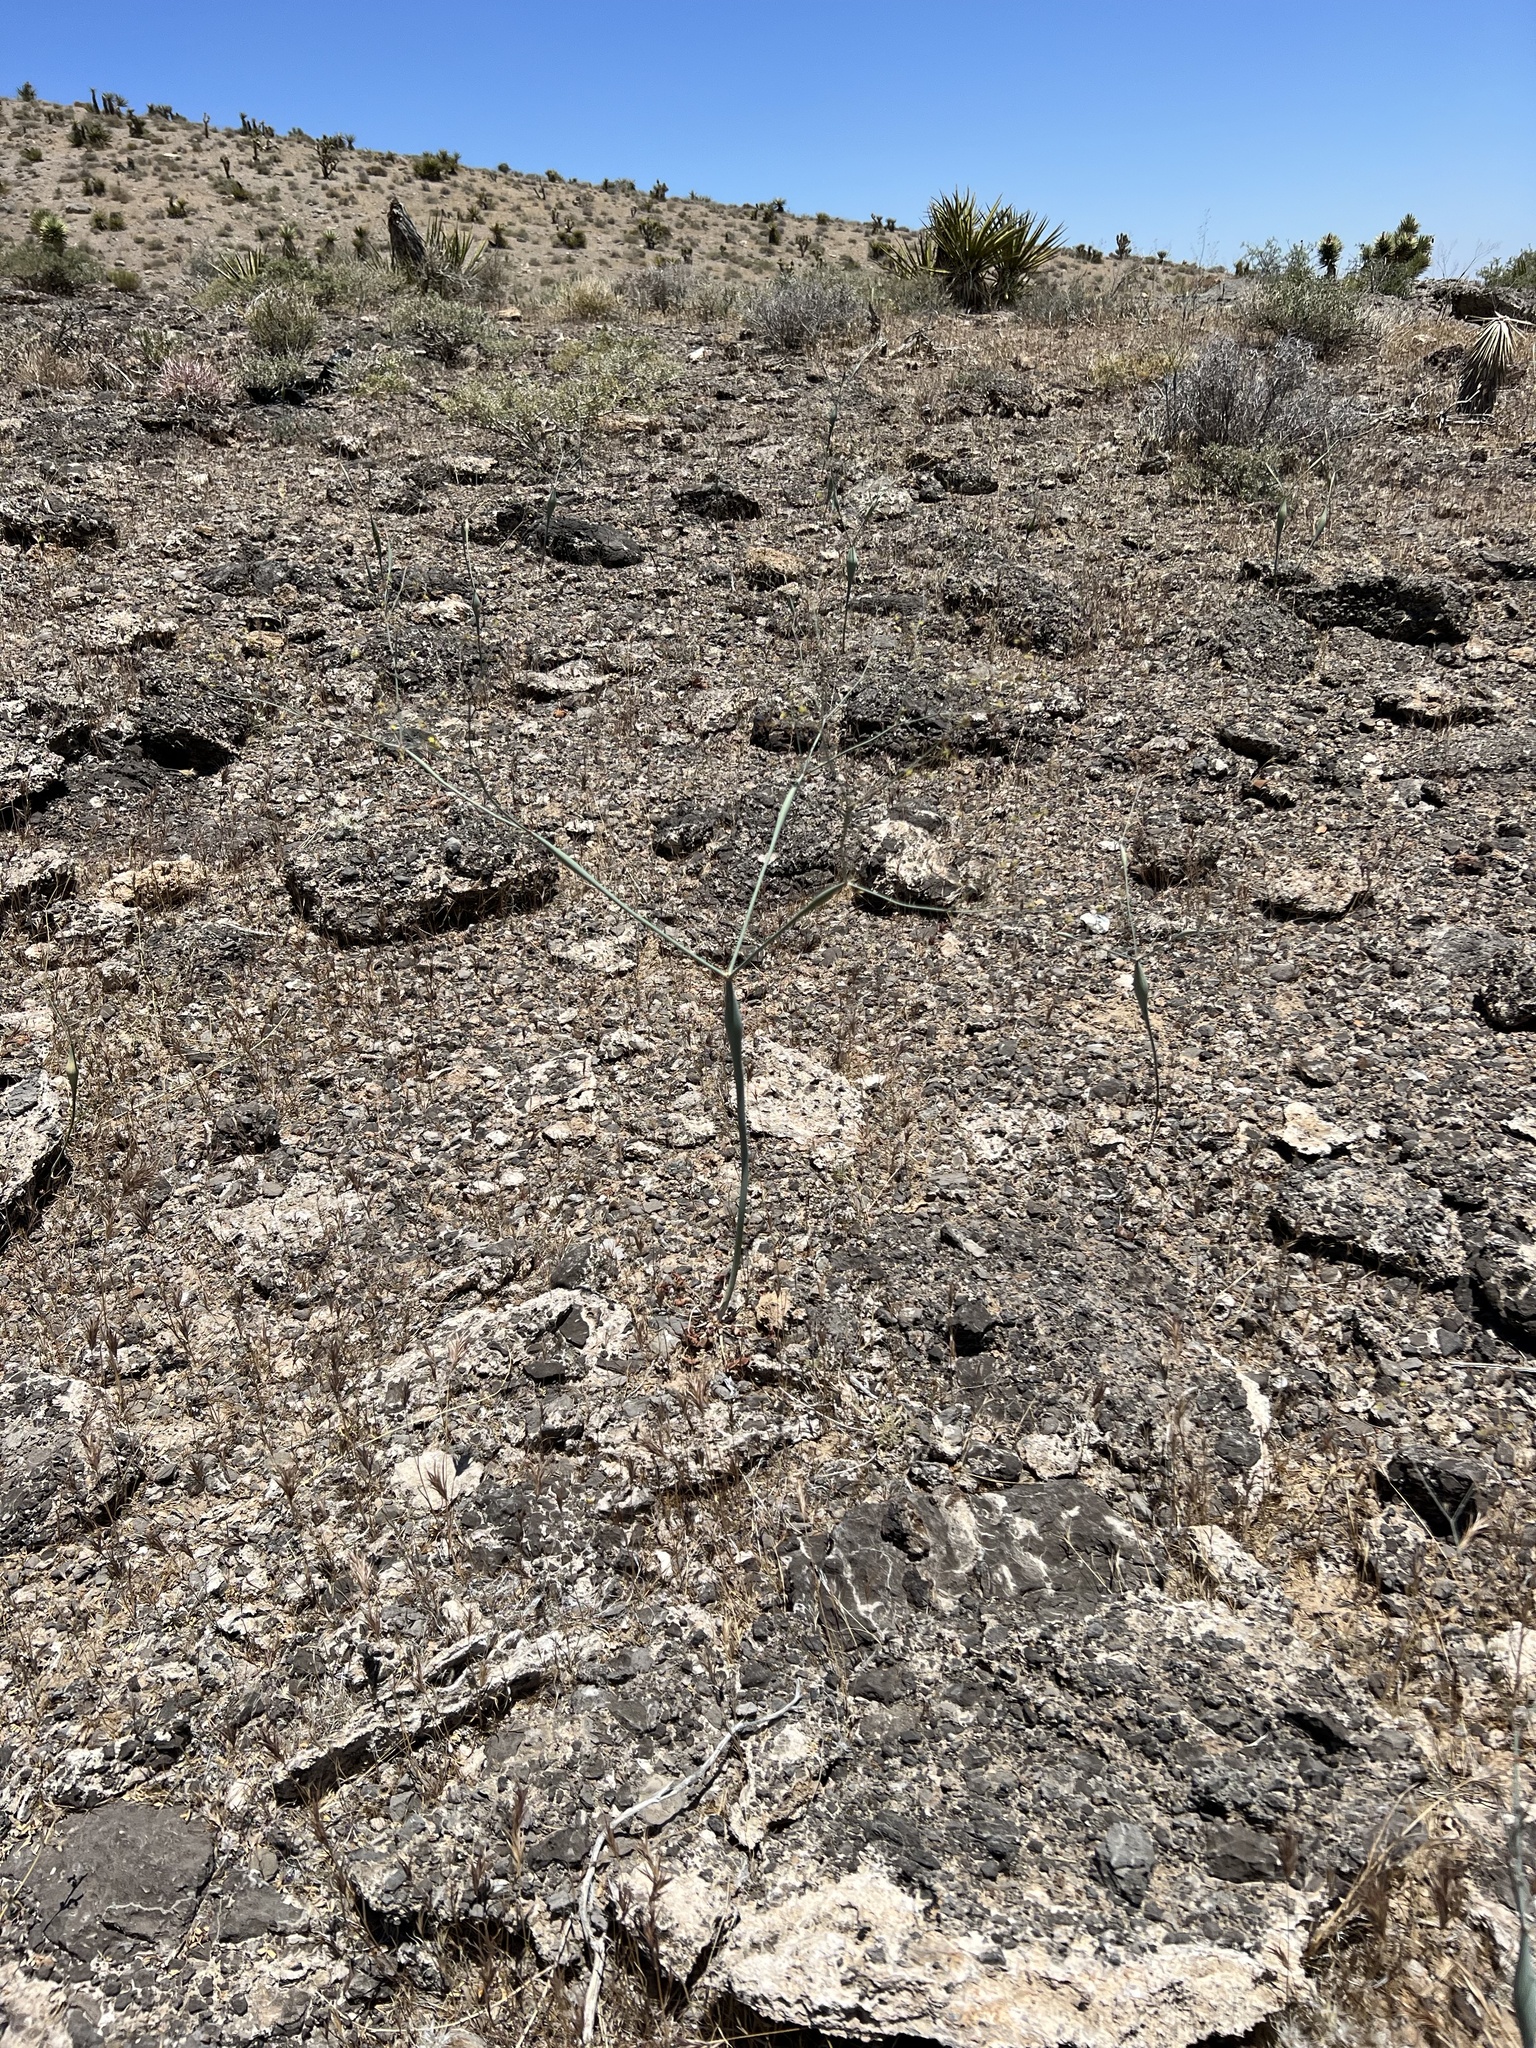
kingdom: Plantae
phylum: Tracheophyta
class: Magnoliopsida
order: Caryophyllales
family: Polygonaceae
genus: Eriogonum
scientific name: Eriogonum inflatum
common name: Desert trumpet
